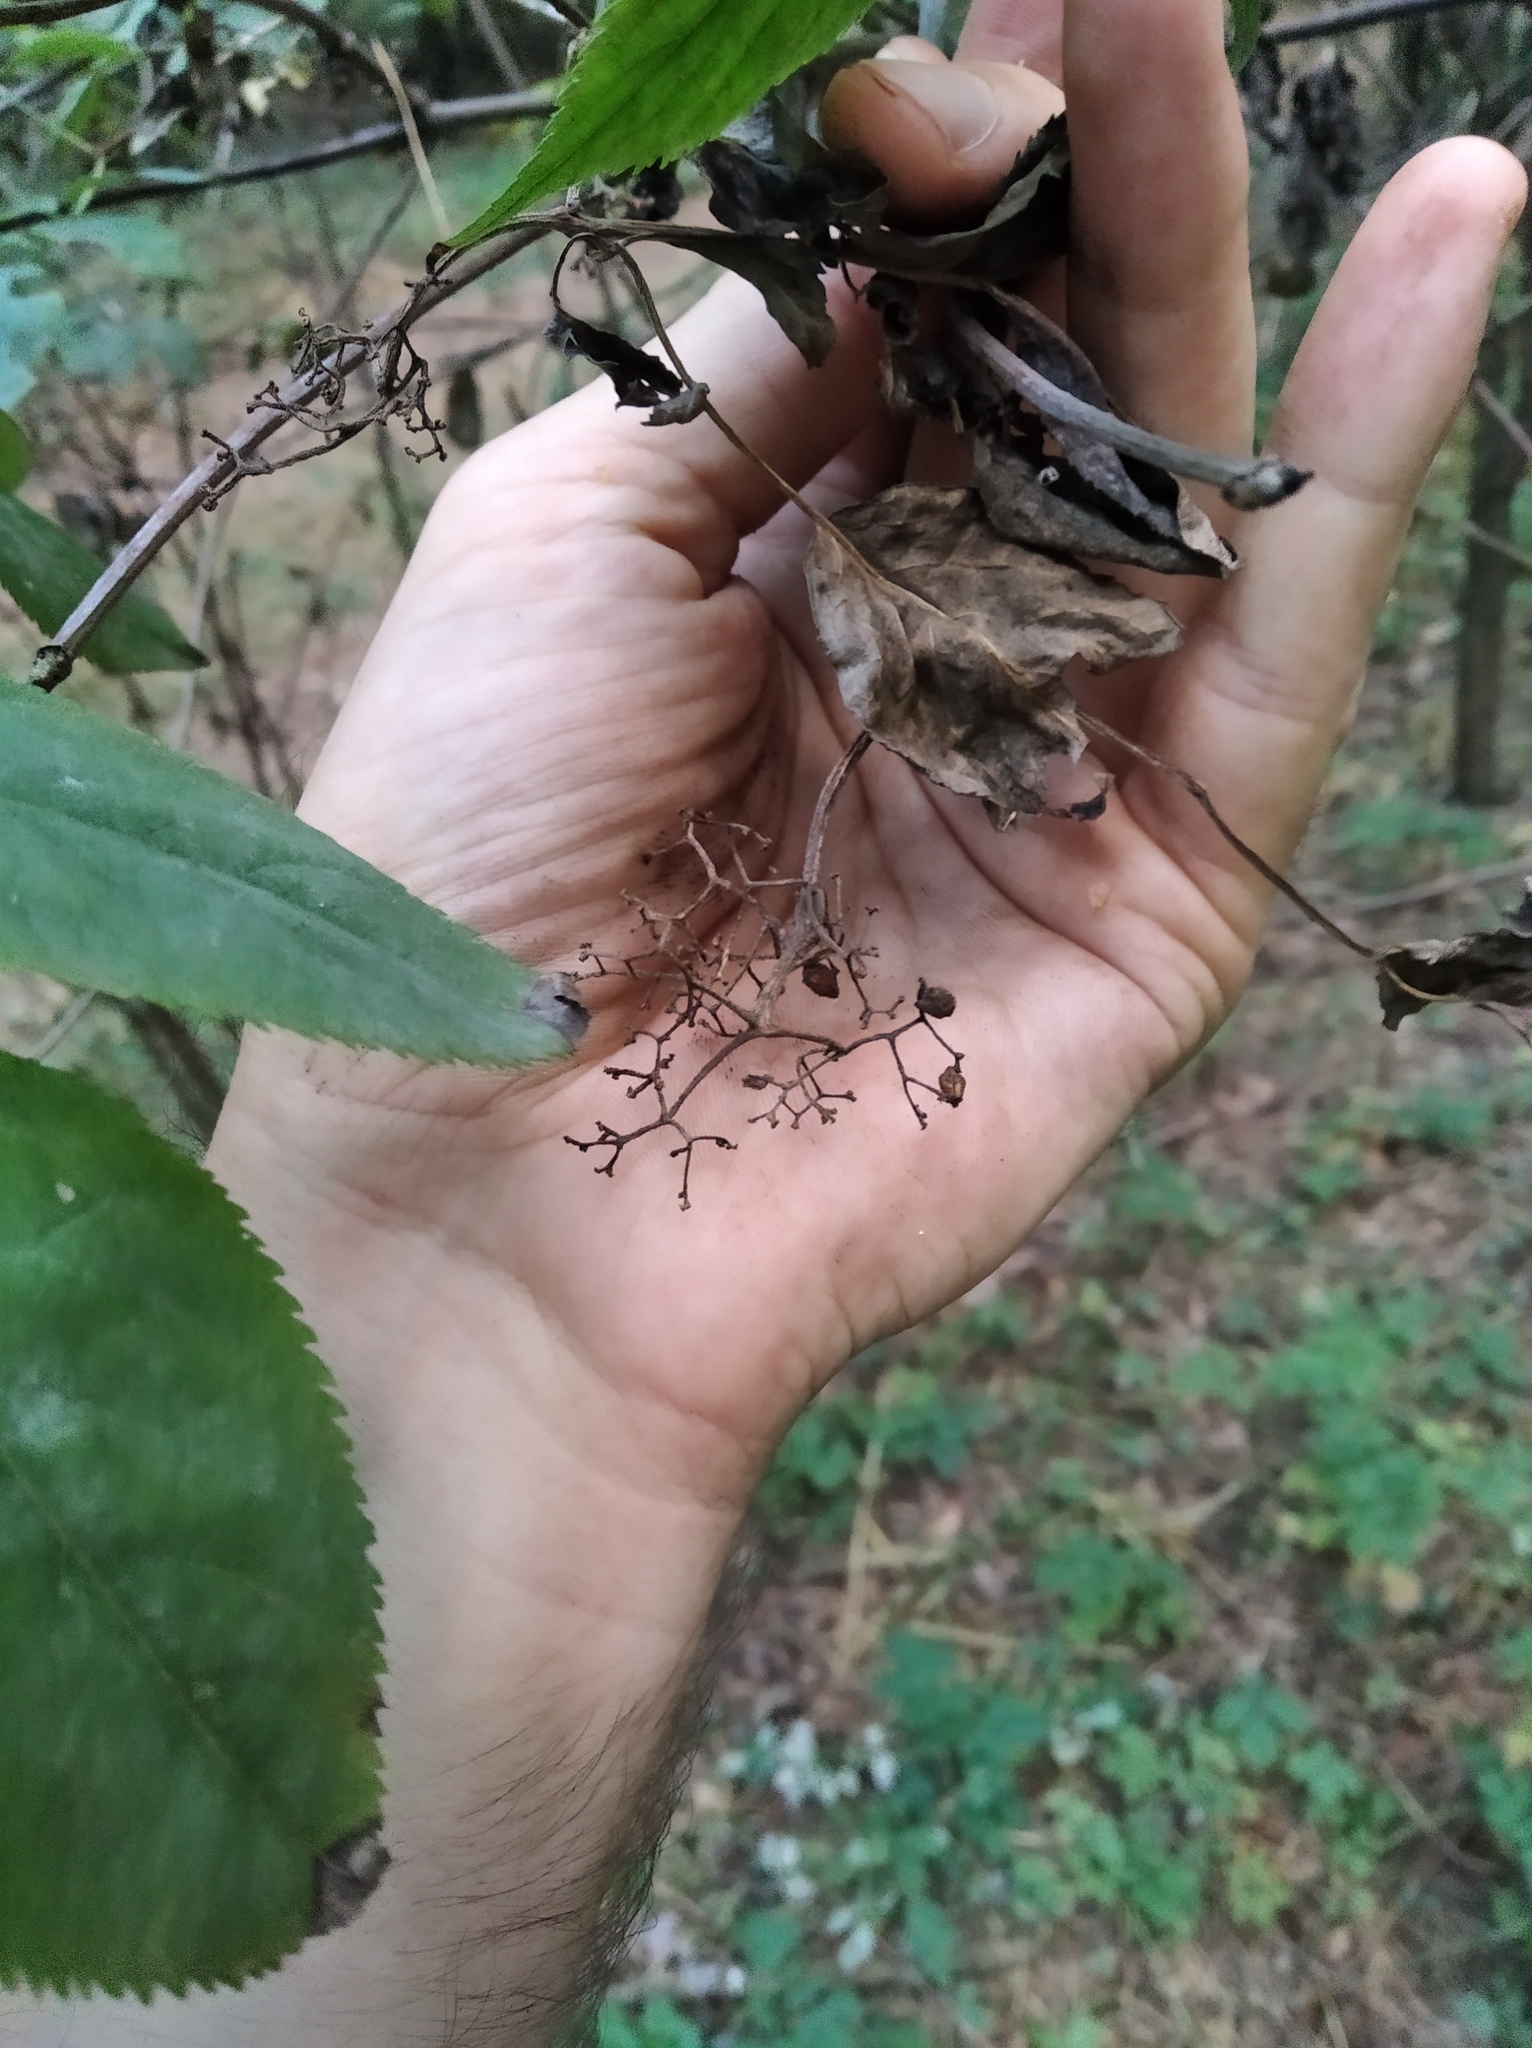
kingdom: Plantae
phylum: Tracheophyta
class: Magnoliopsida
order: Dipsacales
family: Viburnaceae
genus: Sambucus
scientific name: Sambucus racemosa
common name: Red-berried elder
